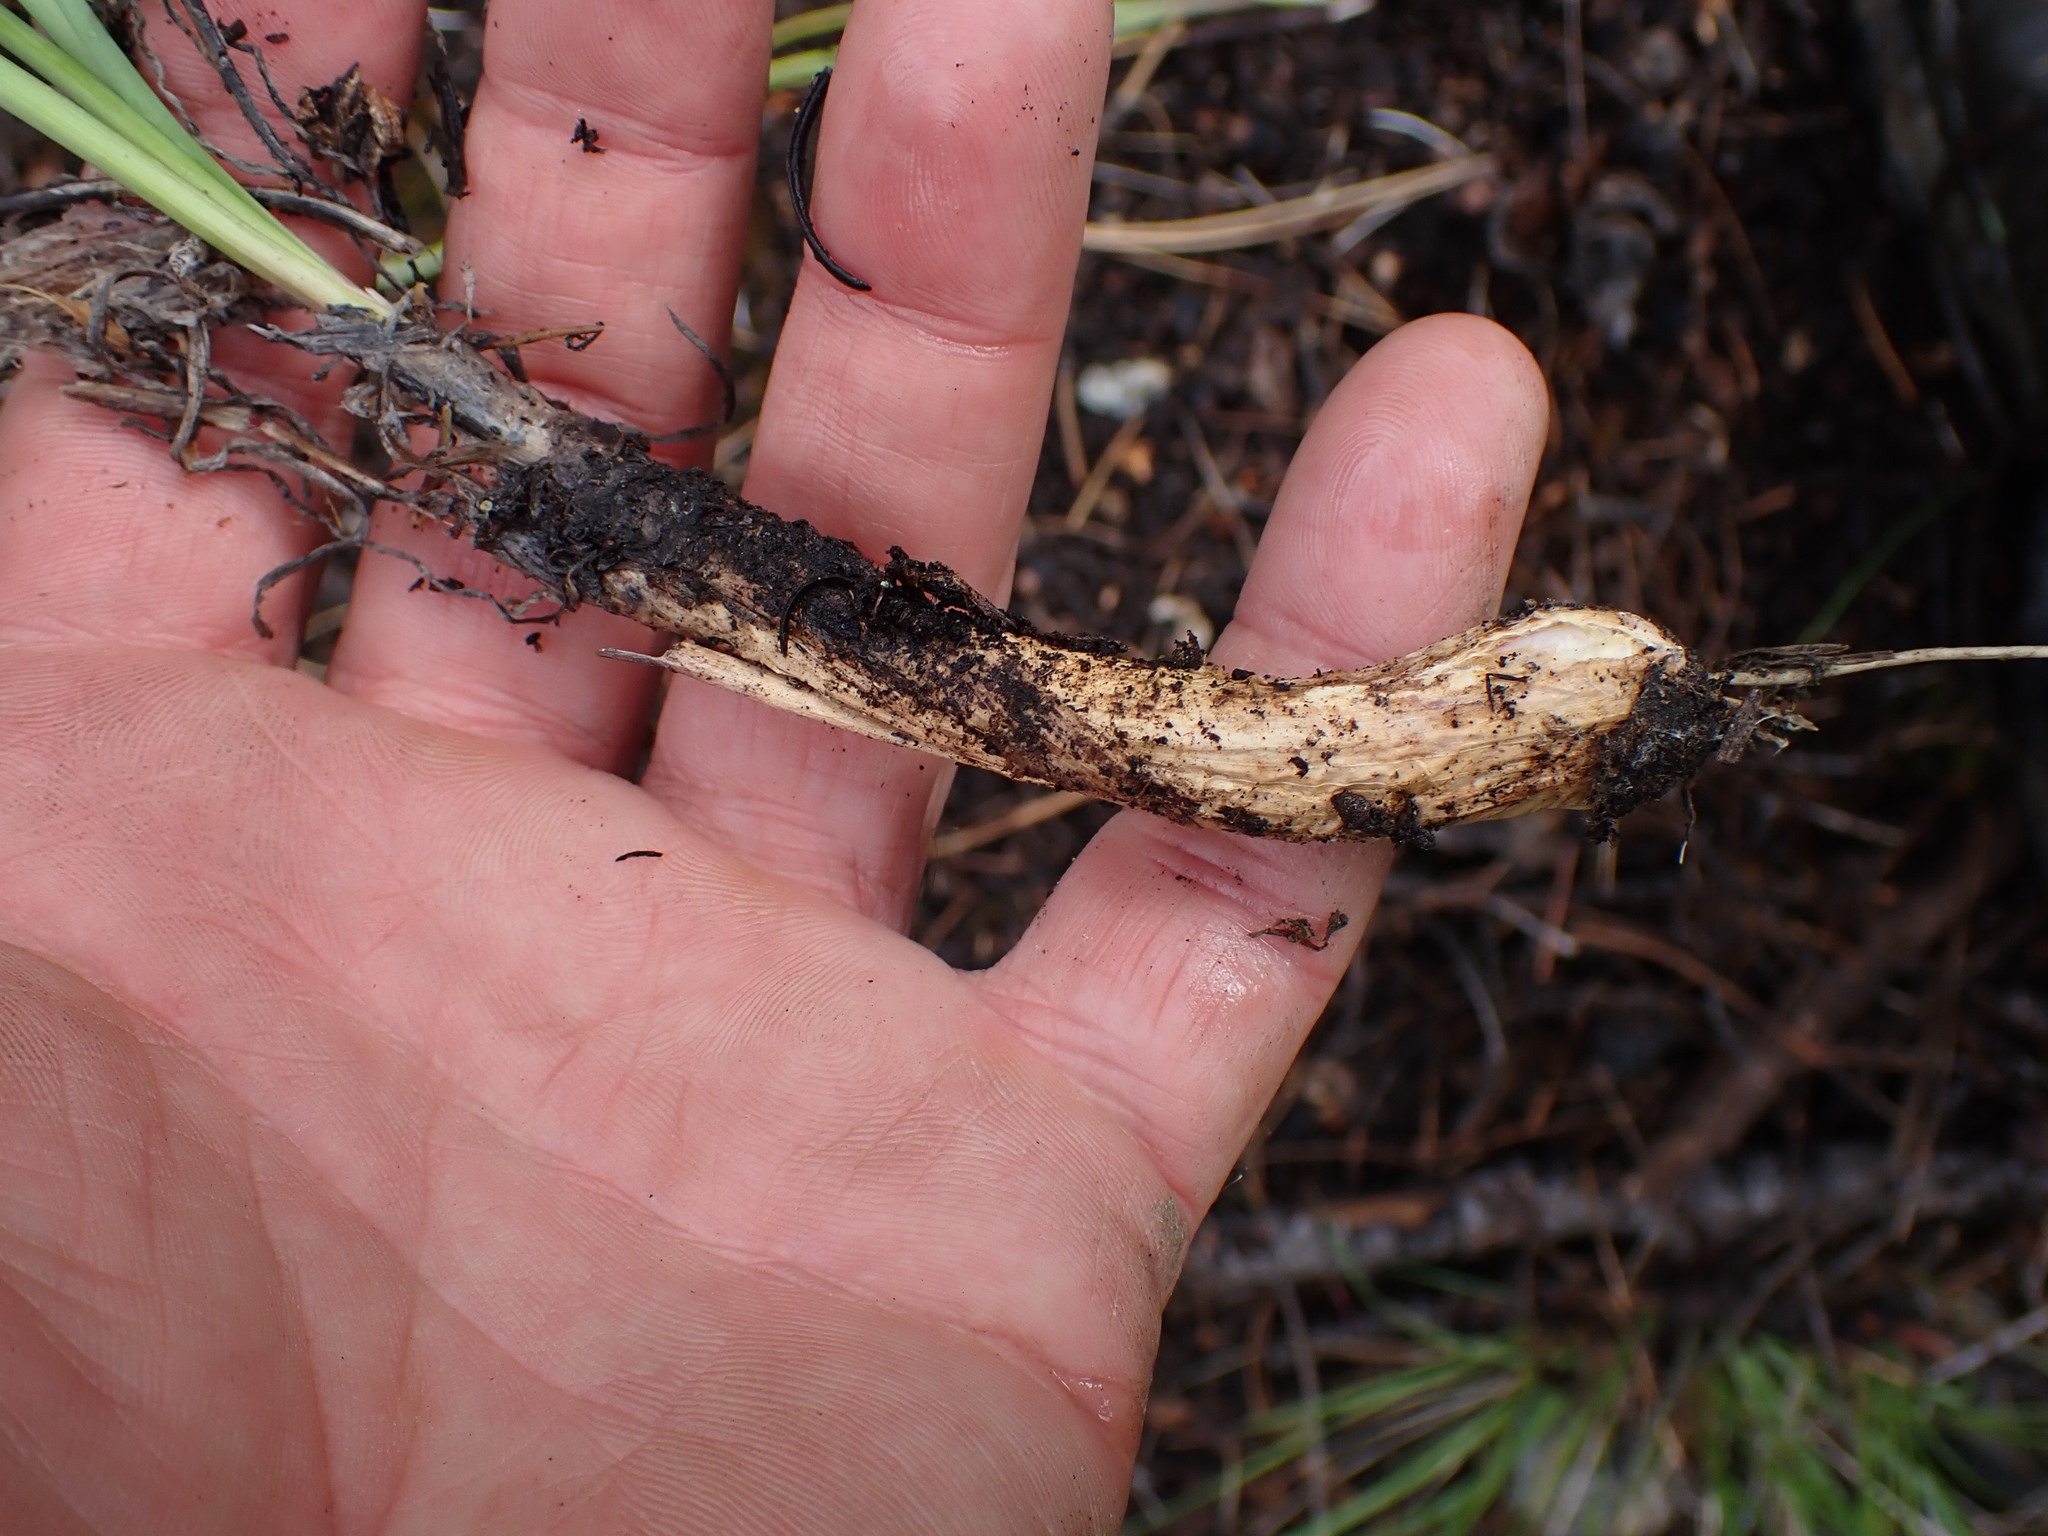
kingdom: Plantae
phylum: Tracheophyta
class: Liliopsida
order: Asparagales
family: Amaryllidaceae
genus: Allium
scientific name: Allium cernuum
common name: Nodding onion
